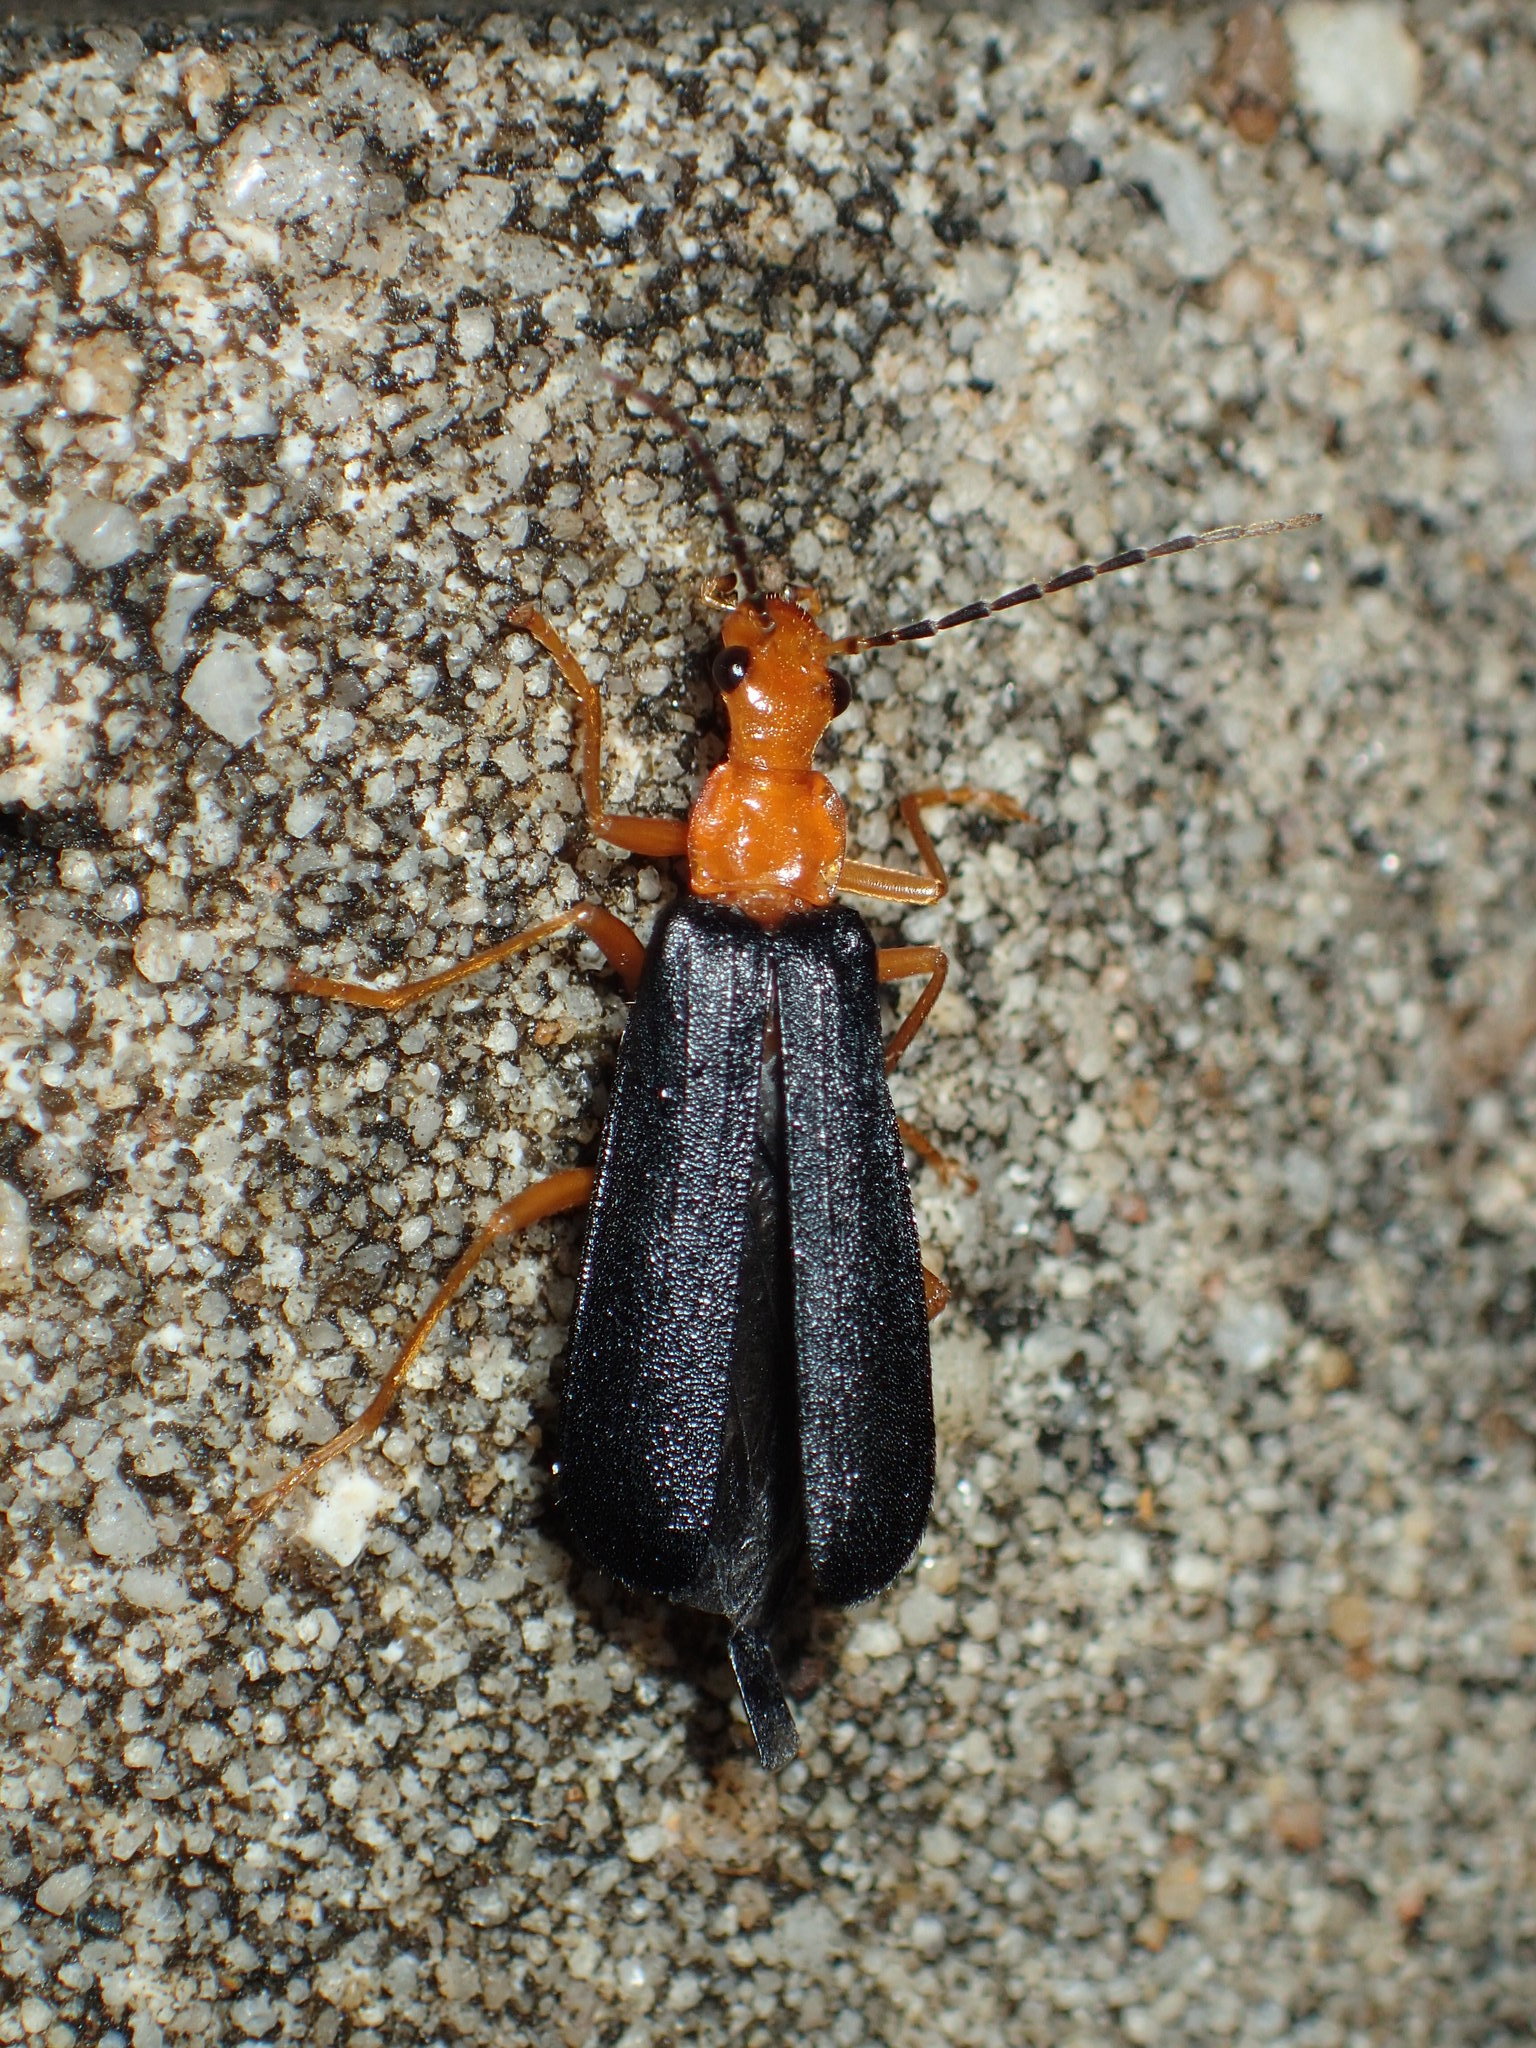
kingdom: Animalia
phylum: Arthropoda
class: Insecta
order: Coleoptera
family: Cantharidae
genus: Podabrus
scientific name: Podabrus fayi
